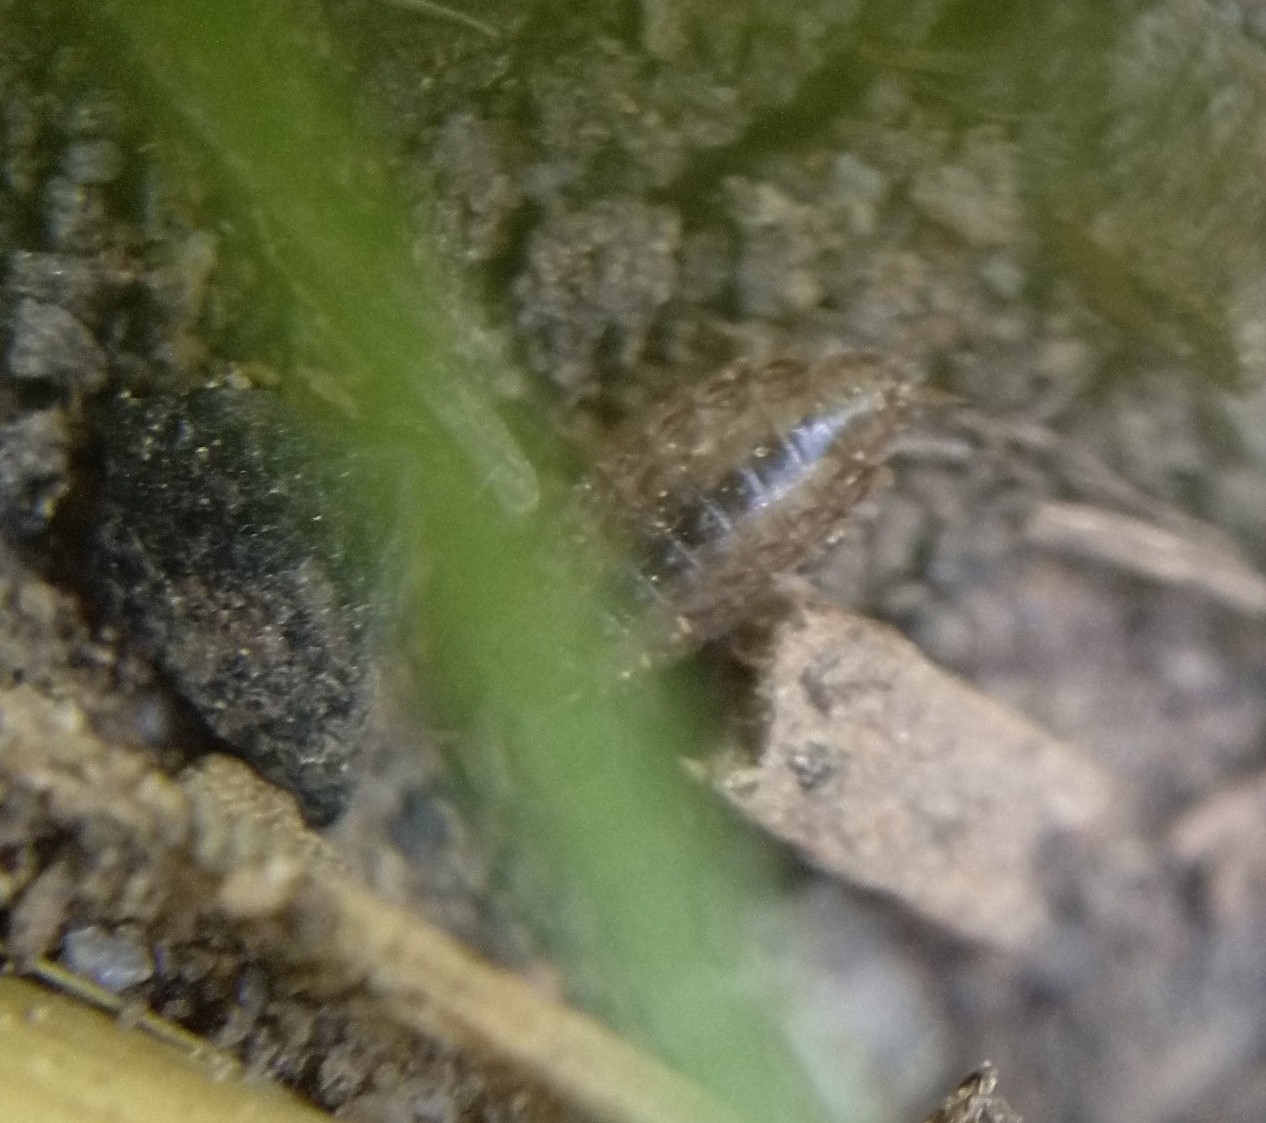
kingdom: Animalia
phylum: Arthropoda
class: Malacostraca
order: Isopoda
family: Philosciidae
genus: Philoscia
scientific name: Philoscia muscorum
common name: Common striped woodlouse
